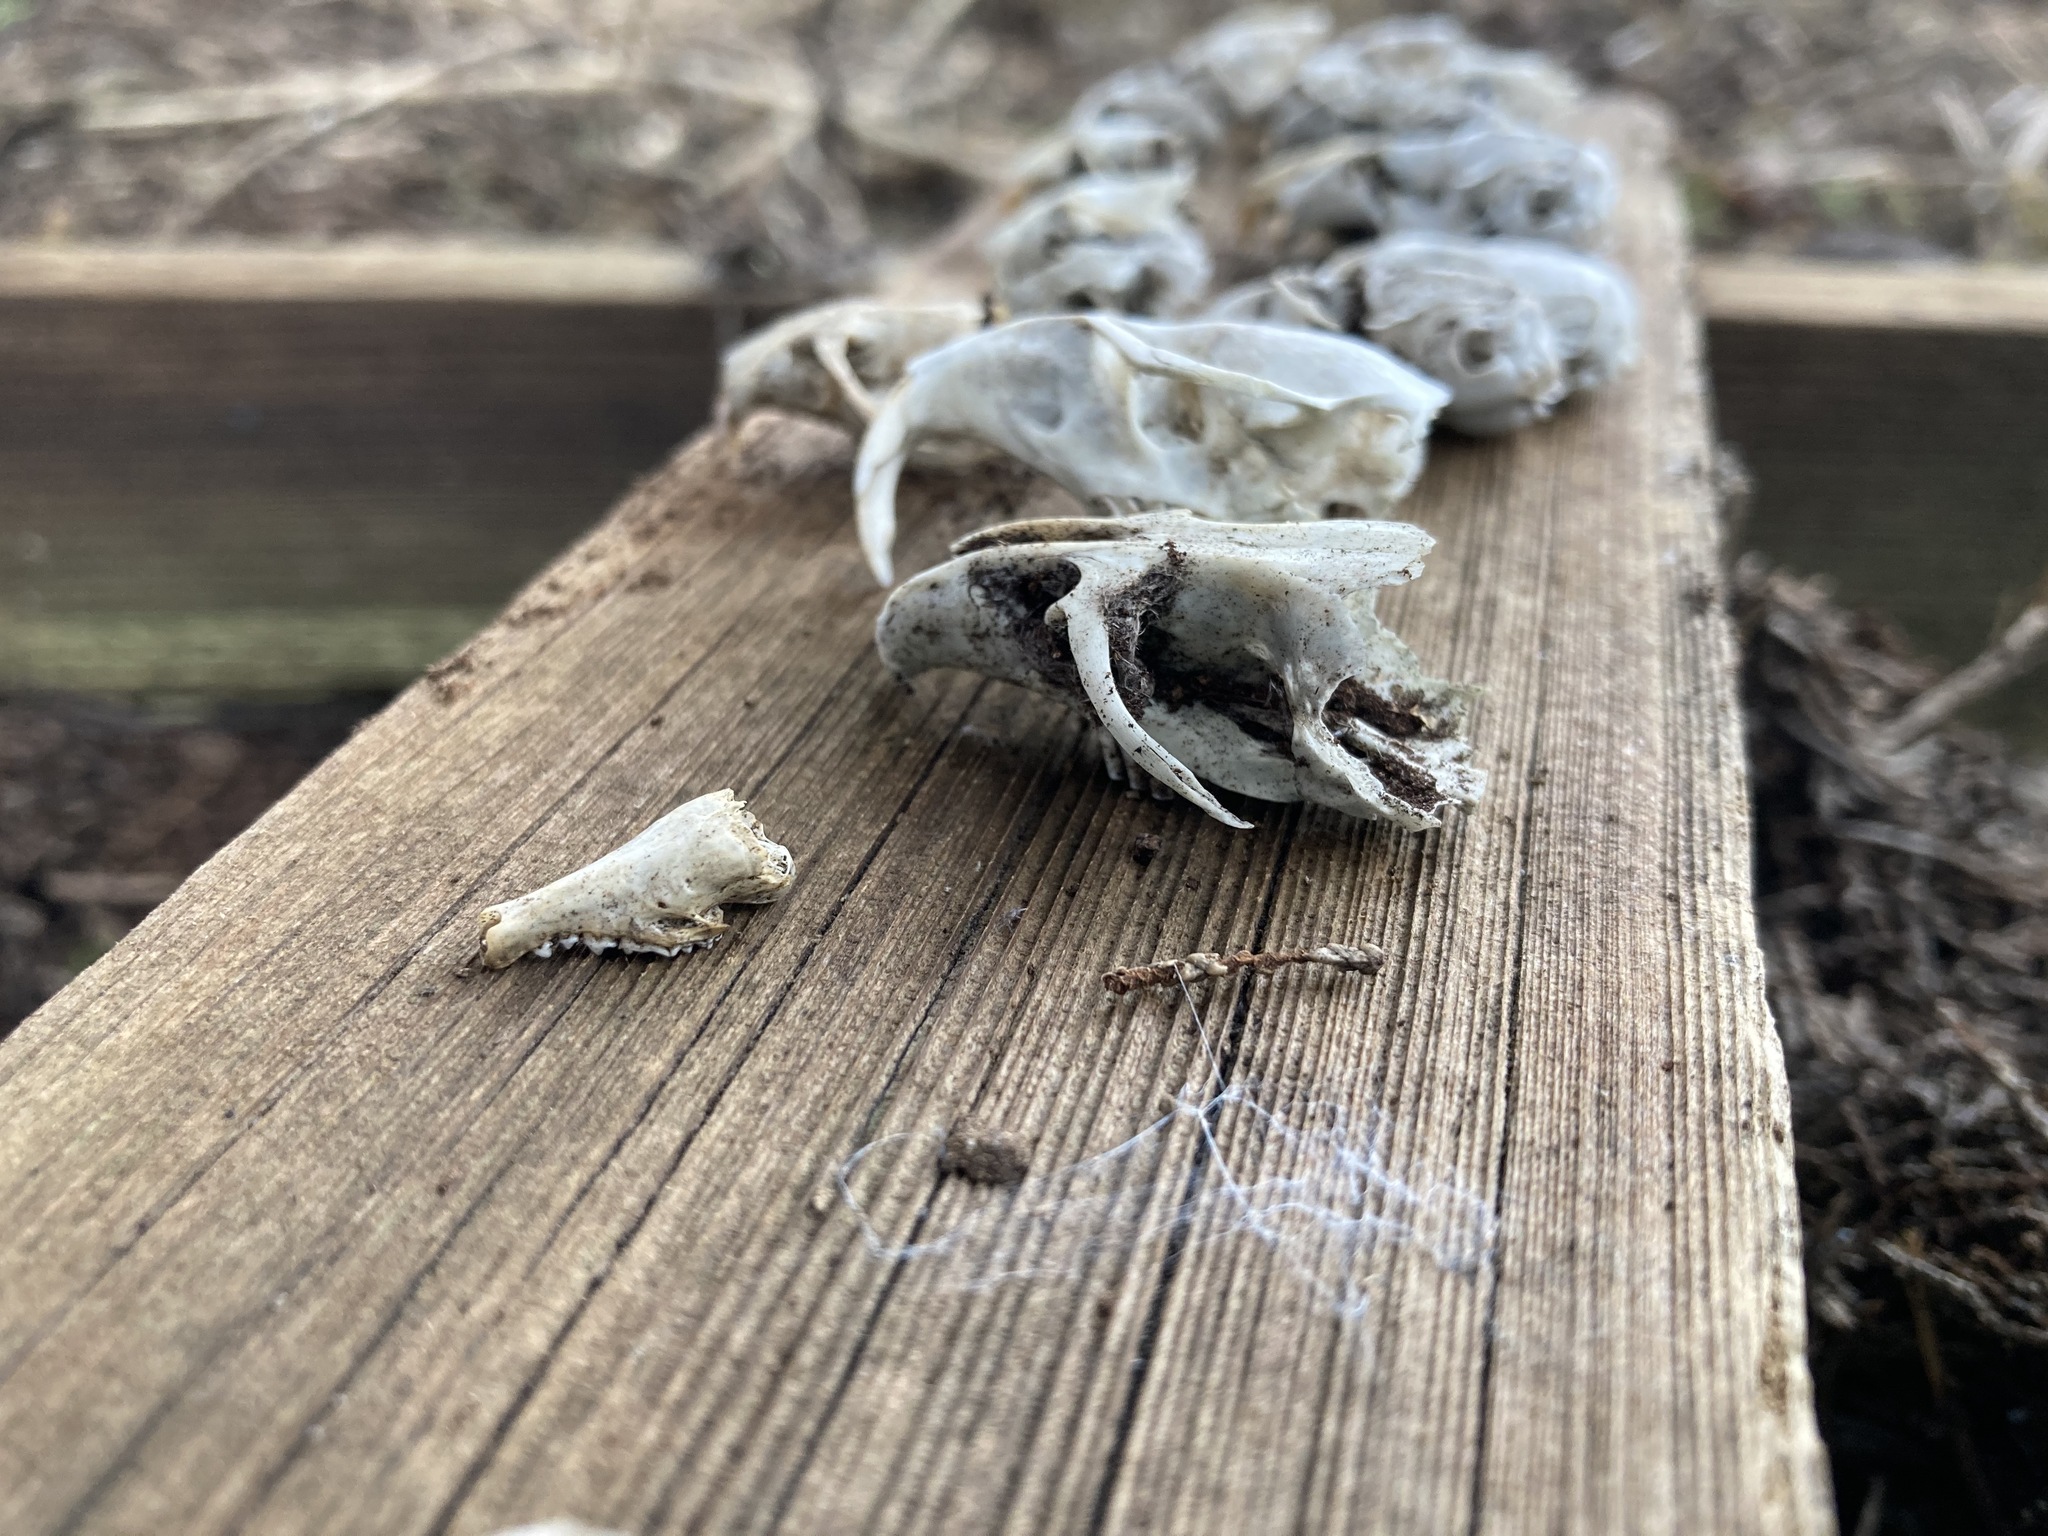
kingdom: Animalia
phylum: Chordata
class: Mammalia
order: Soricomorpha
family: Talpidae
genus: Neurotrichus
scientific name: Neurotrichus gibbsii
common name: American shrew mole
